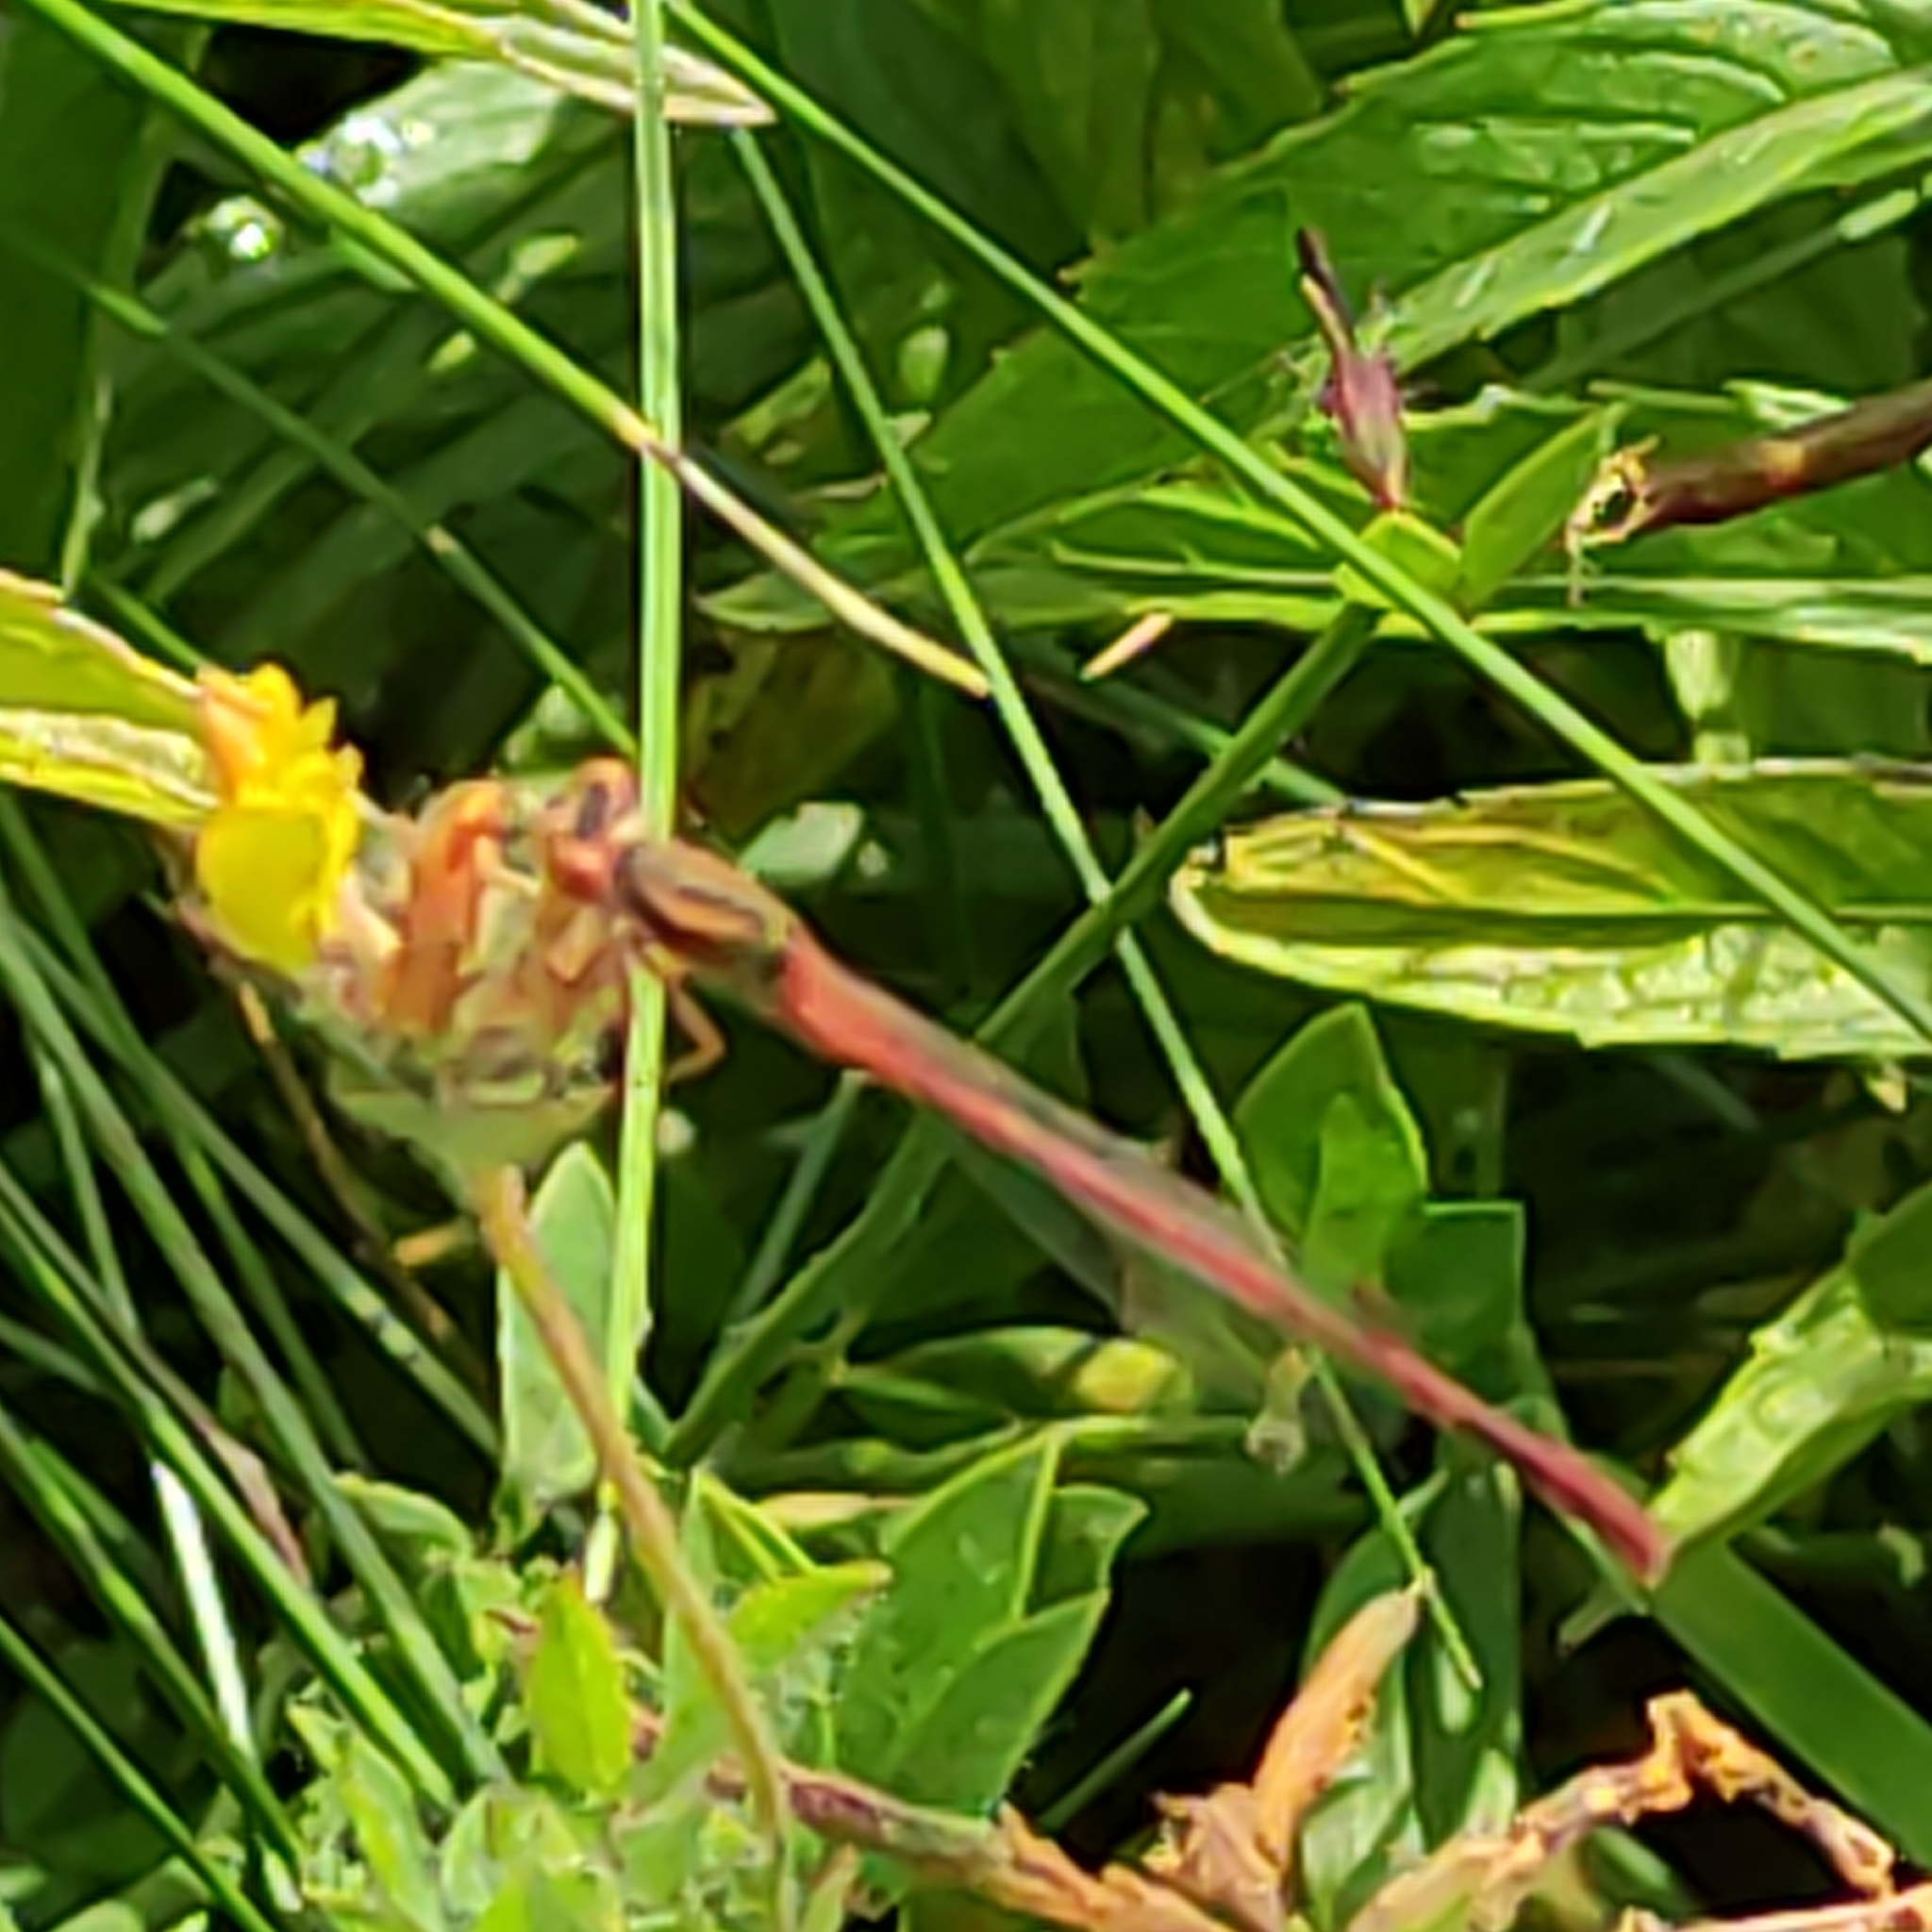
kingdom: Animalia
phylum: Arthropoda
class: Insecta
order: Odonata
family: Coenagrionidae
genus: Xanthocnemis
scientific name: Xanthocnemis zealandica
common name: Common redcoat damselfly
